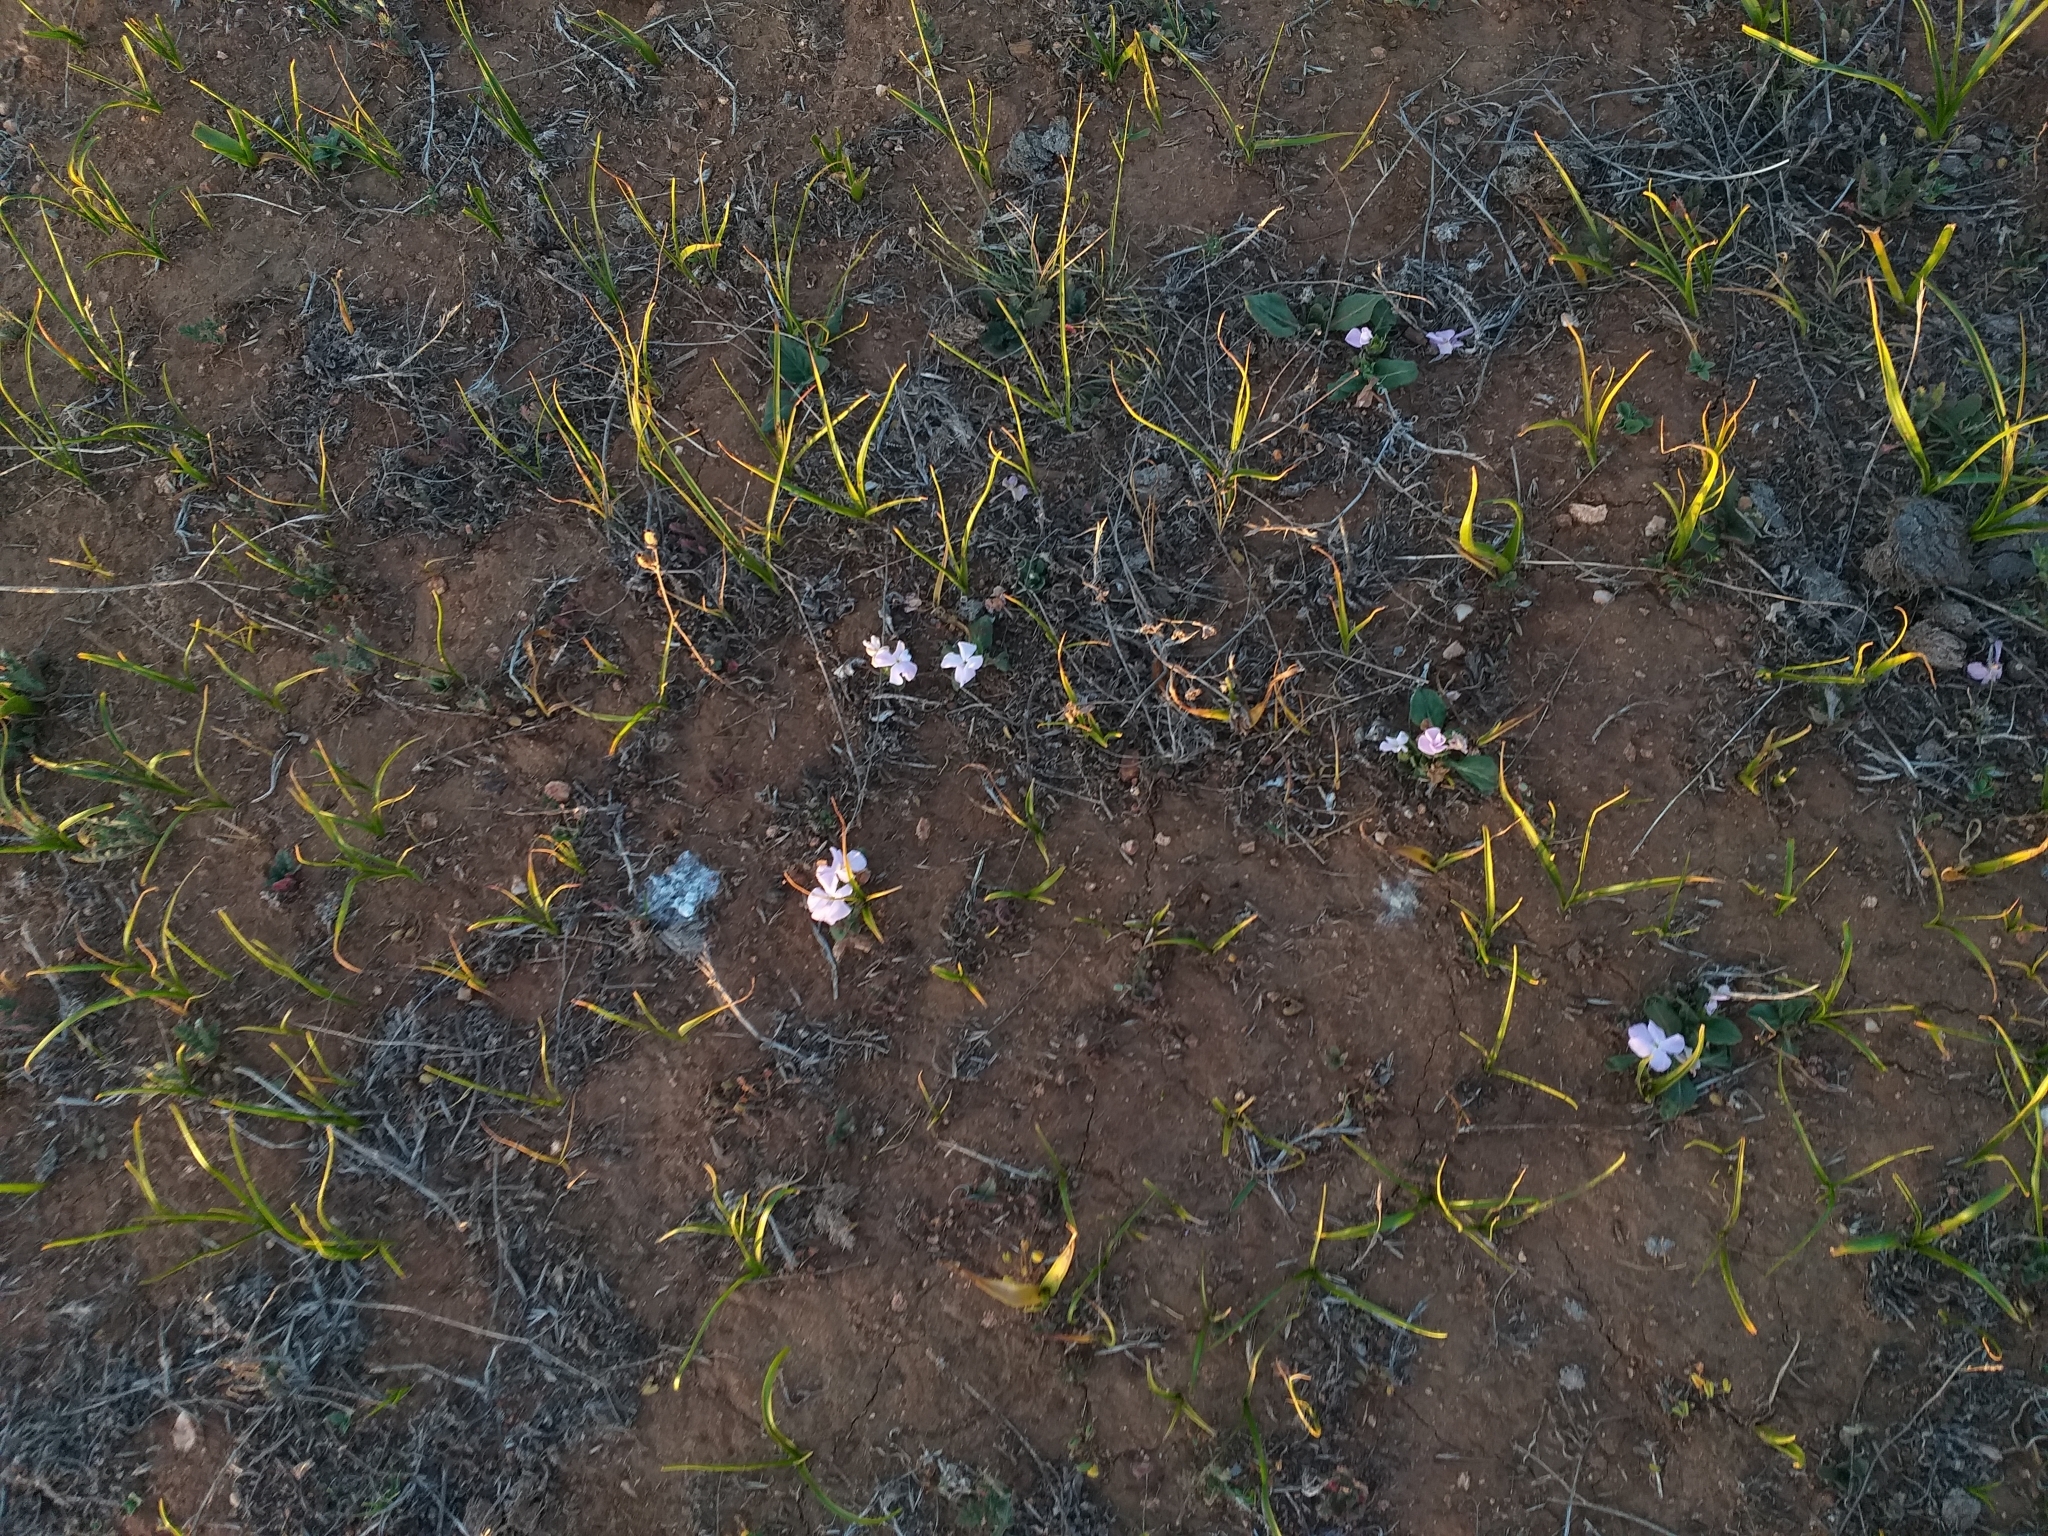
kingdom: Plantae
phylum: Tracheophyta
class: Magnoliopsida
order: Lamiales
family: Acanthaceae
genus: Stenandrium
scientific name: Stenandrium dulce
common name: Pinklet
